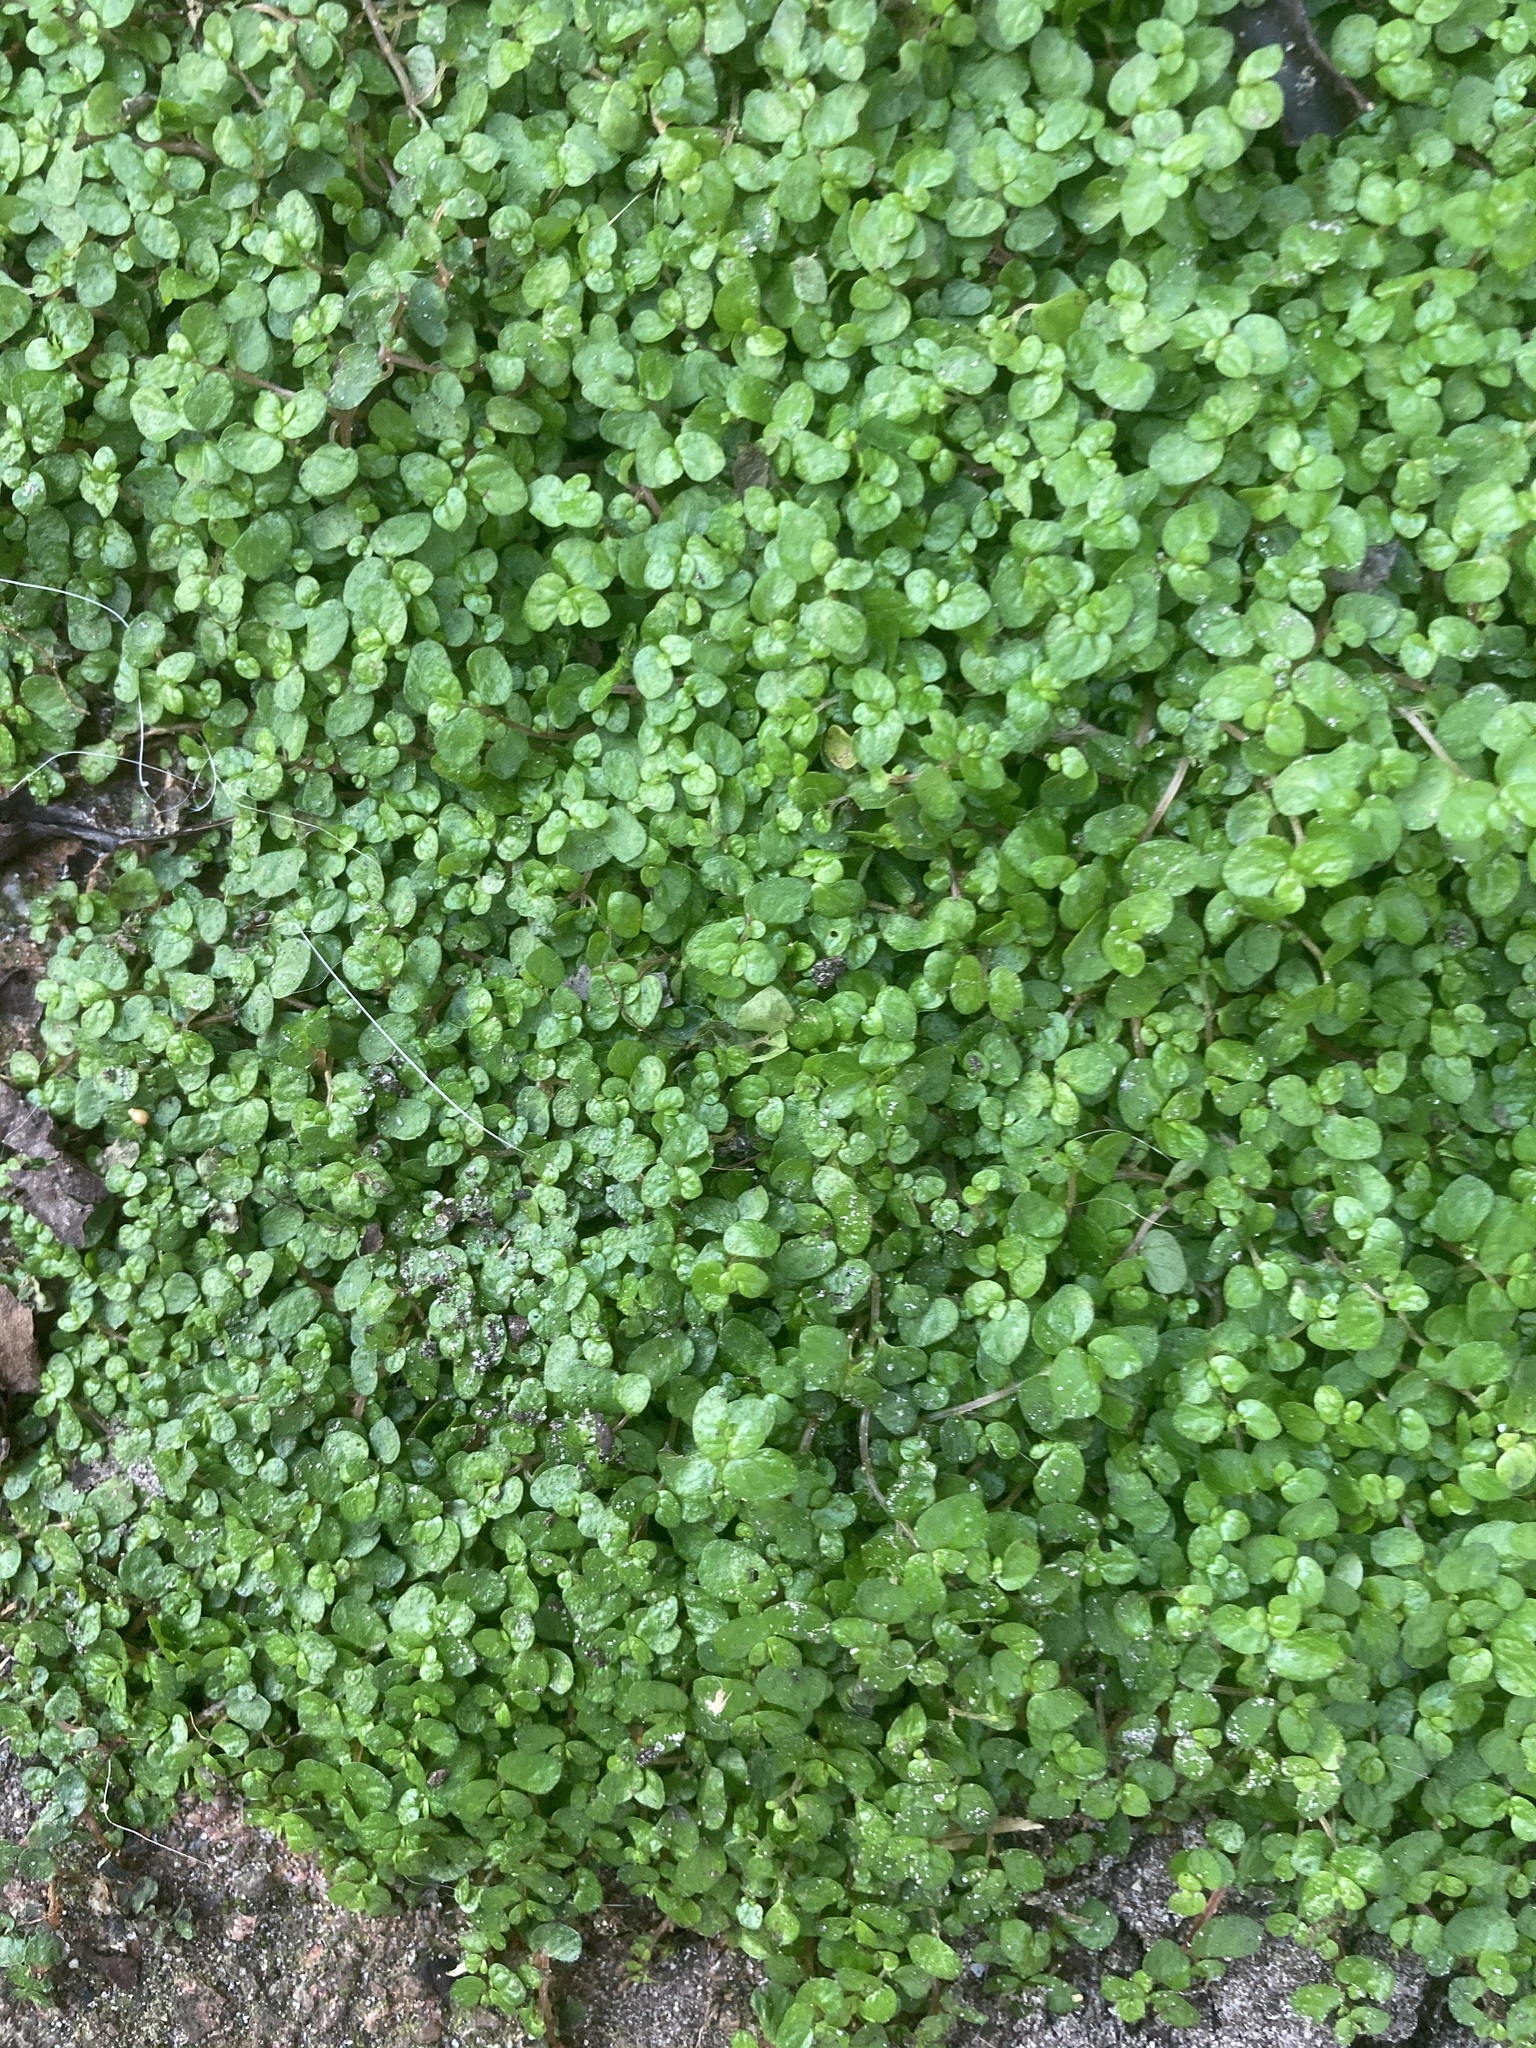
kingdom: Plantae
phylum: Tracheophyta
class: Magnoliopsida
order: Rosales
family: Urticaceae
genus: Soleirolia
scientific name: Soleirolia soleirolii
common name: Mind-your-own-business
